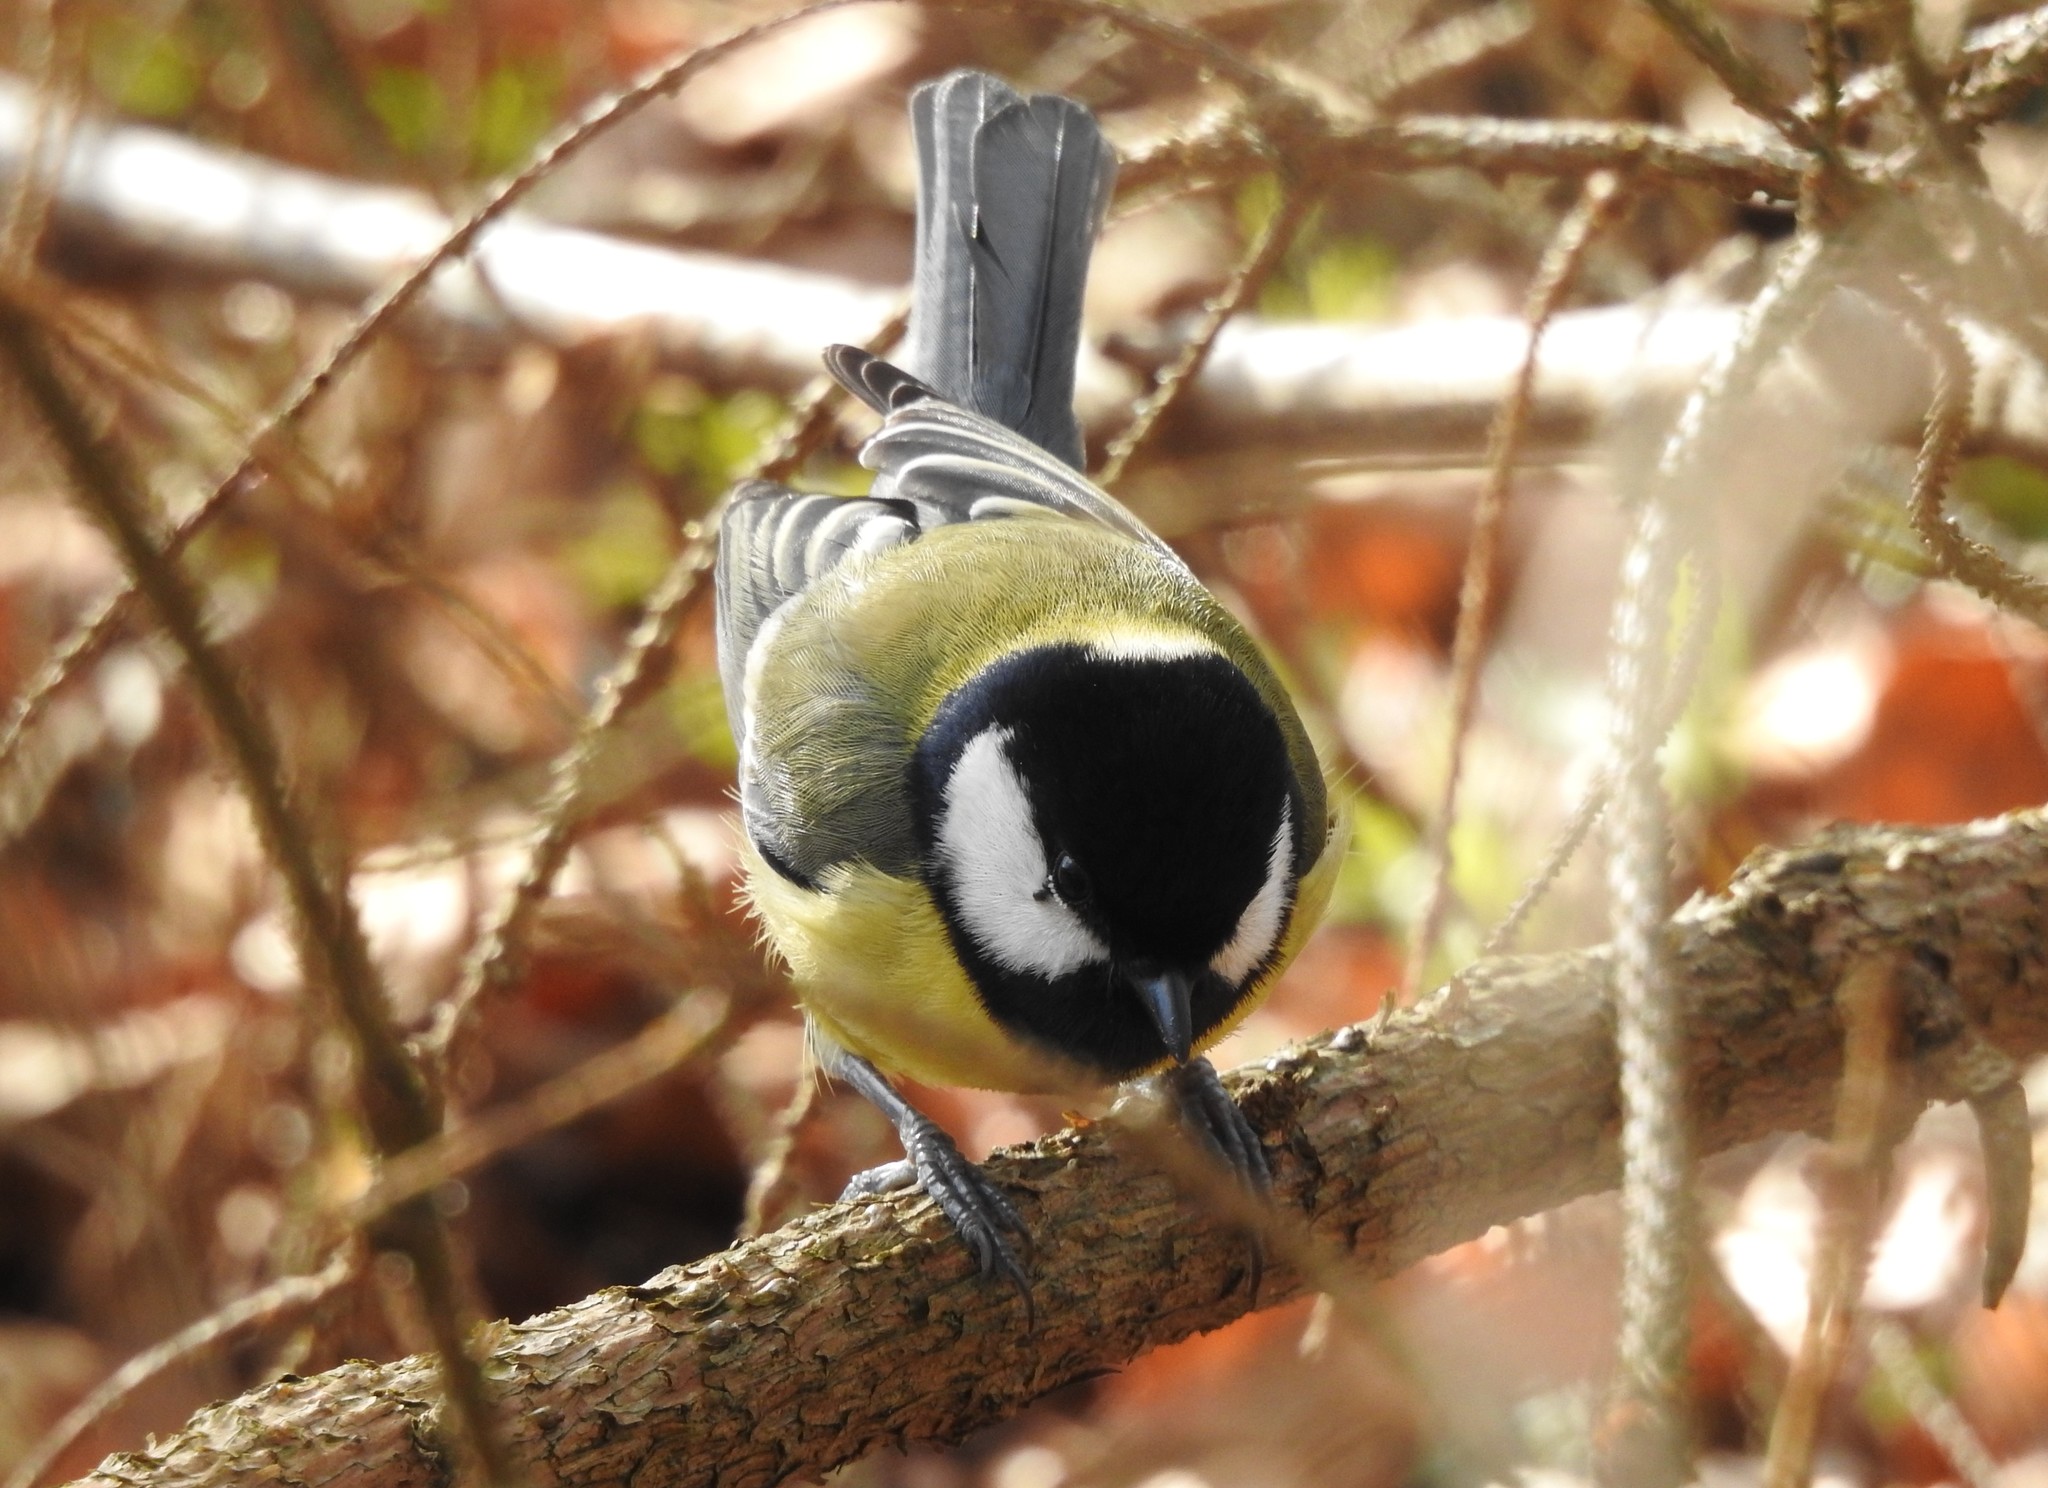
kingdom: Animalia
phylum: Chordata
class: Aves
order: Passeriformes
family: Paridae
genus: Parus
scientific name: Parus major
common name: Great tit
